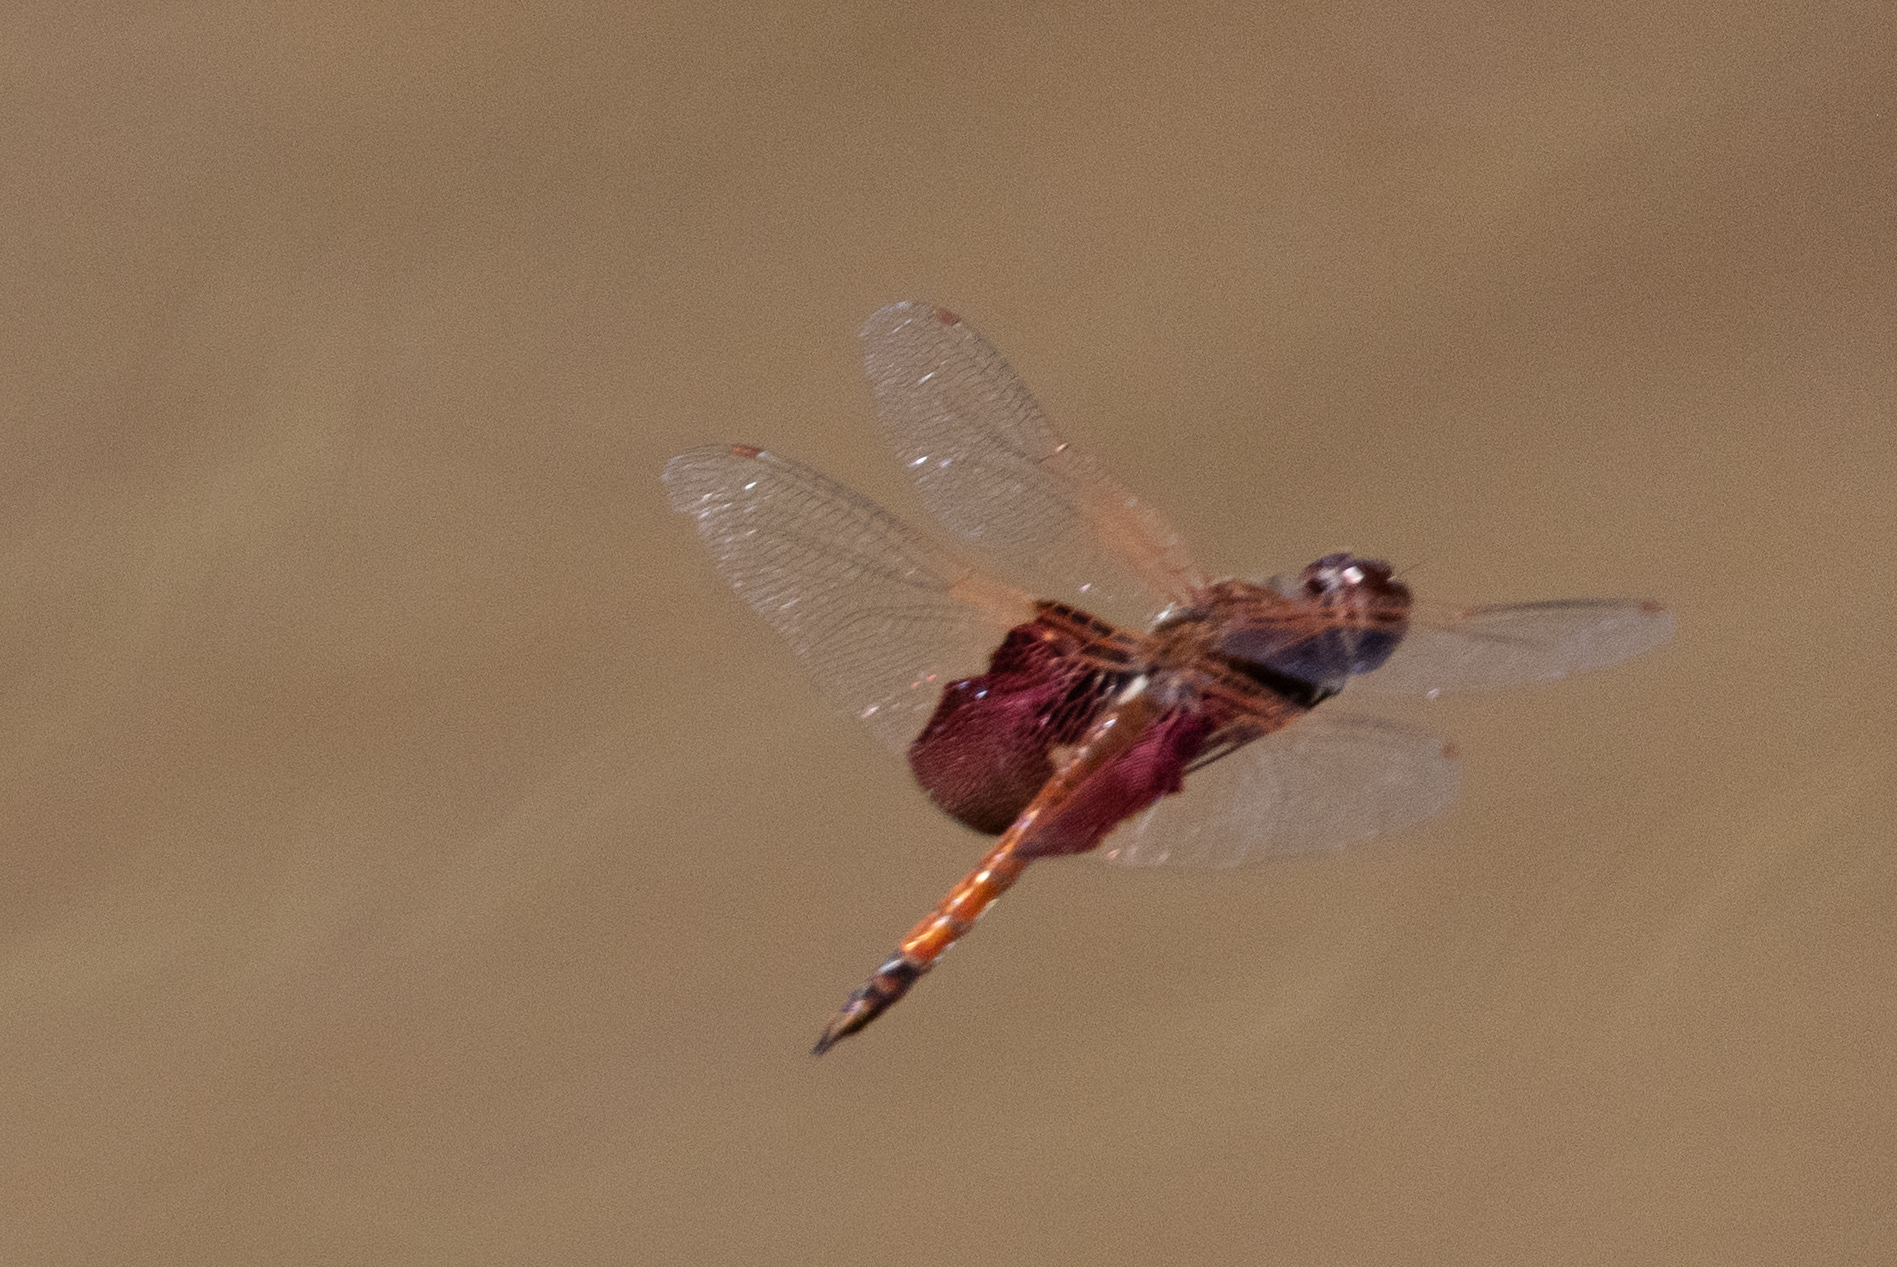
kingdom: Animalia
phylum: Arthropoda
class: Insecta
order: Odonata
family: Libellulidae
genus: Tramea
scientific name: Tramea carolina
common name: Carolina saddlebags
